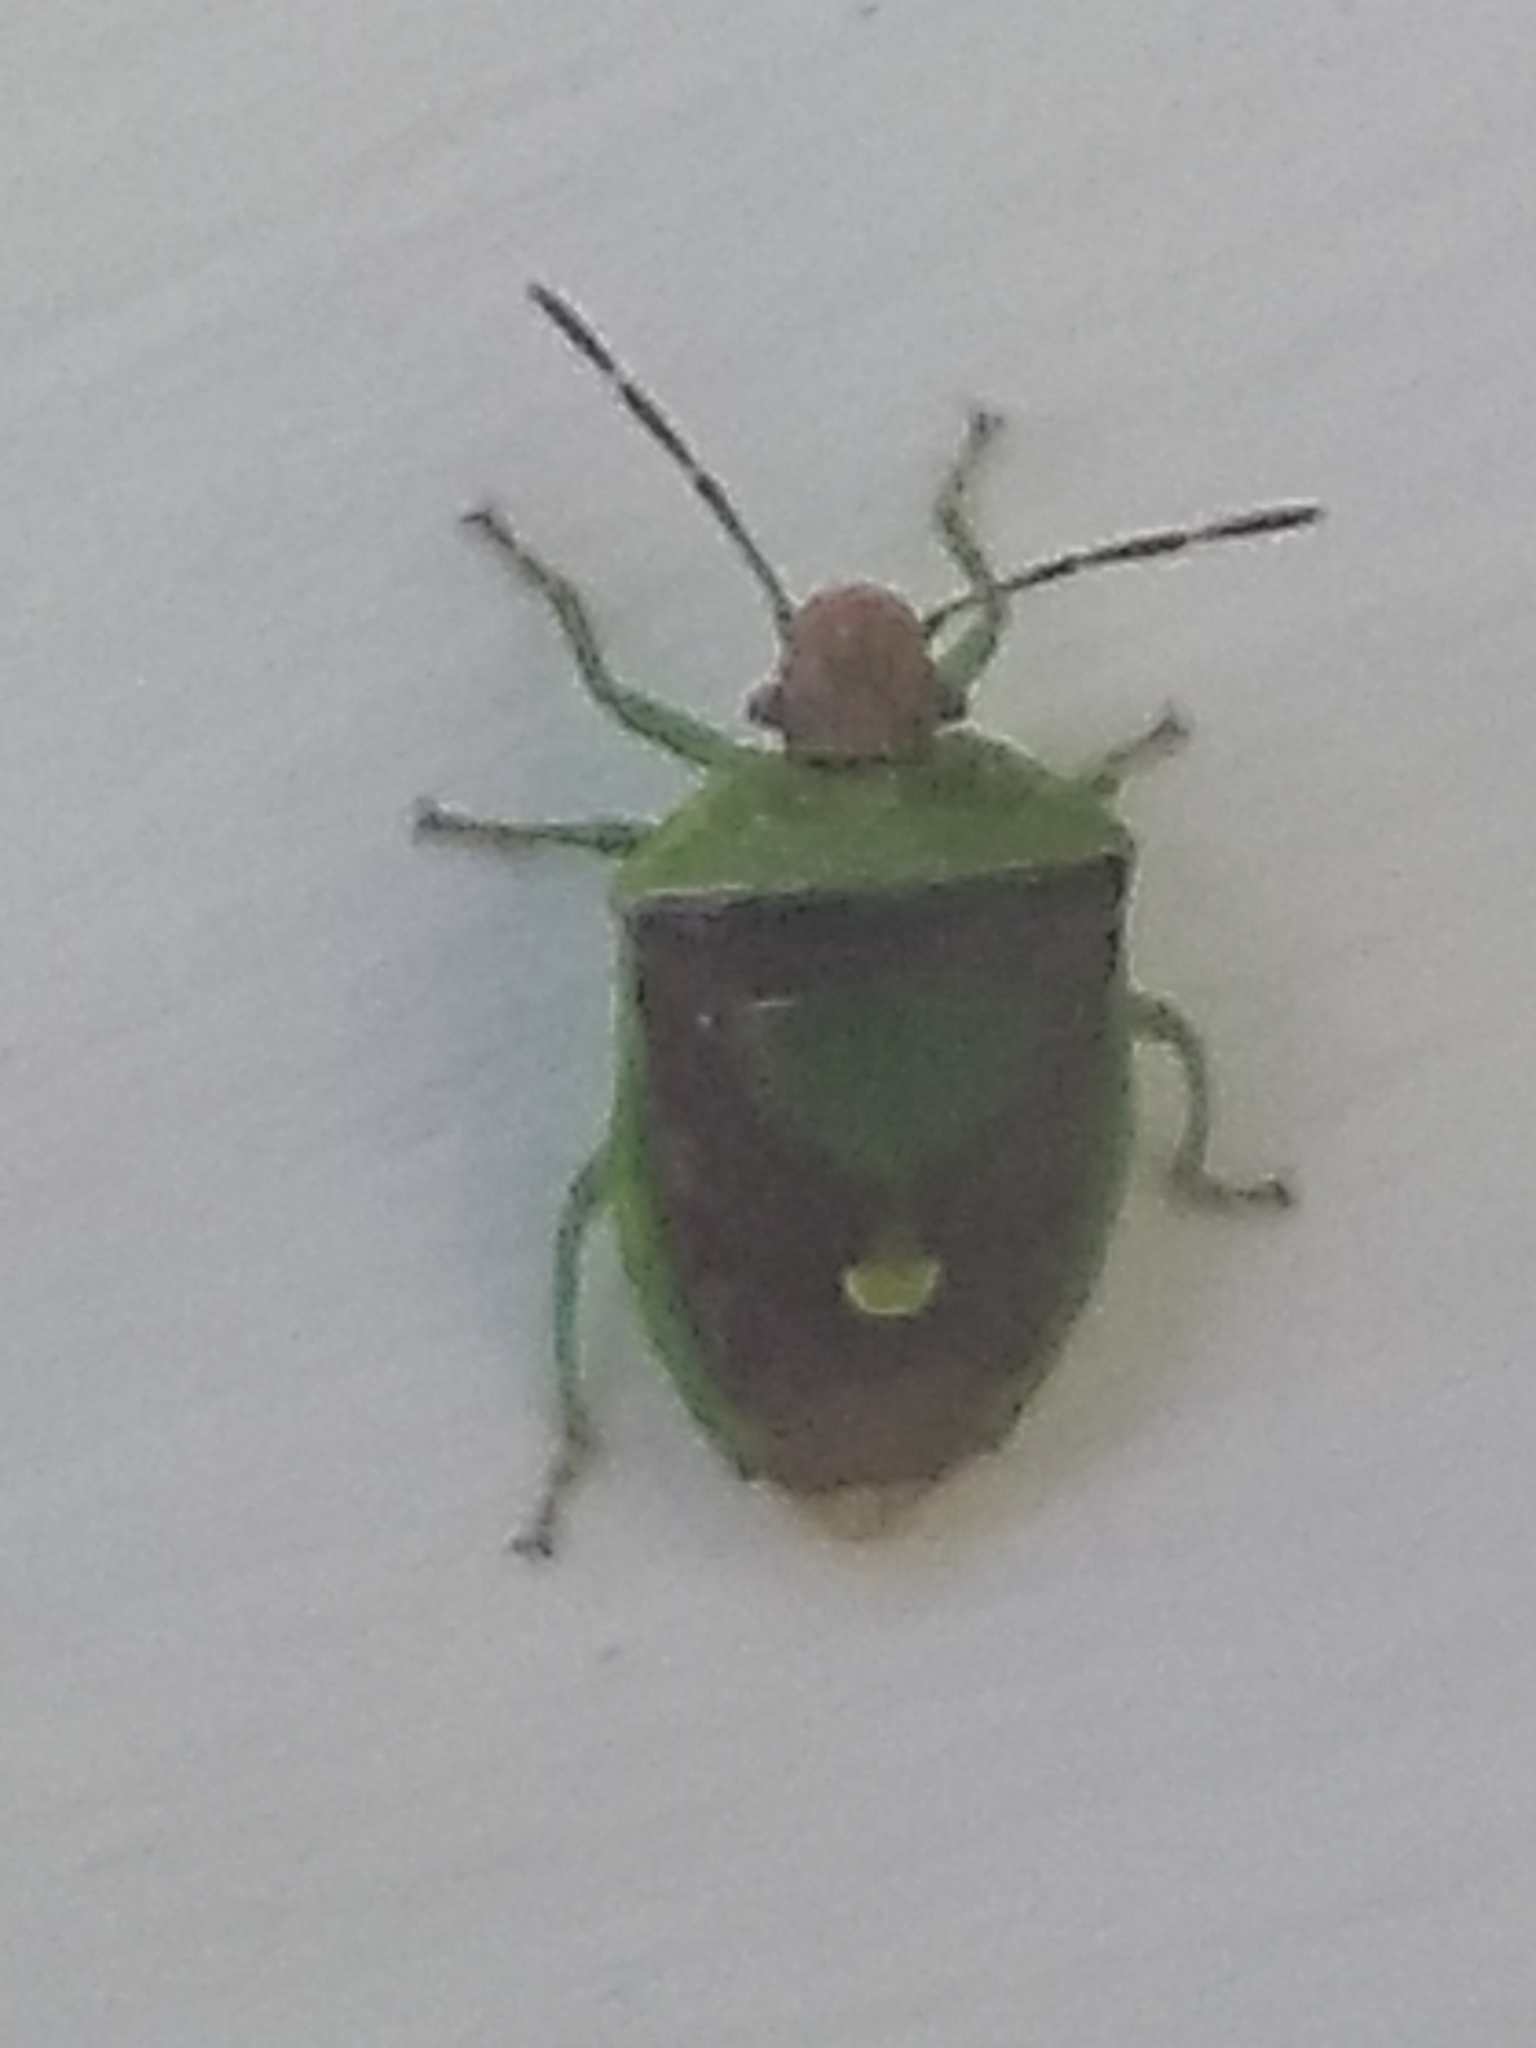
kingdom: Animalia
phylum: Arthropoda
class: Insecta
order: Hemiptera
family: Pentatomidae
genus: Banasa
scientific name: Banasa dimidiata
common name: Green burgundy stink bug
